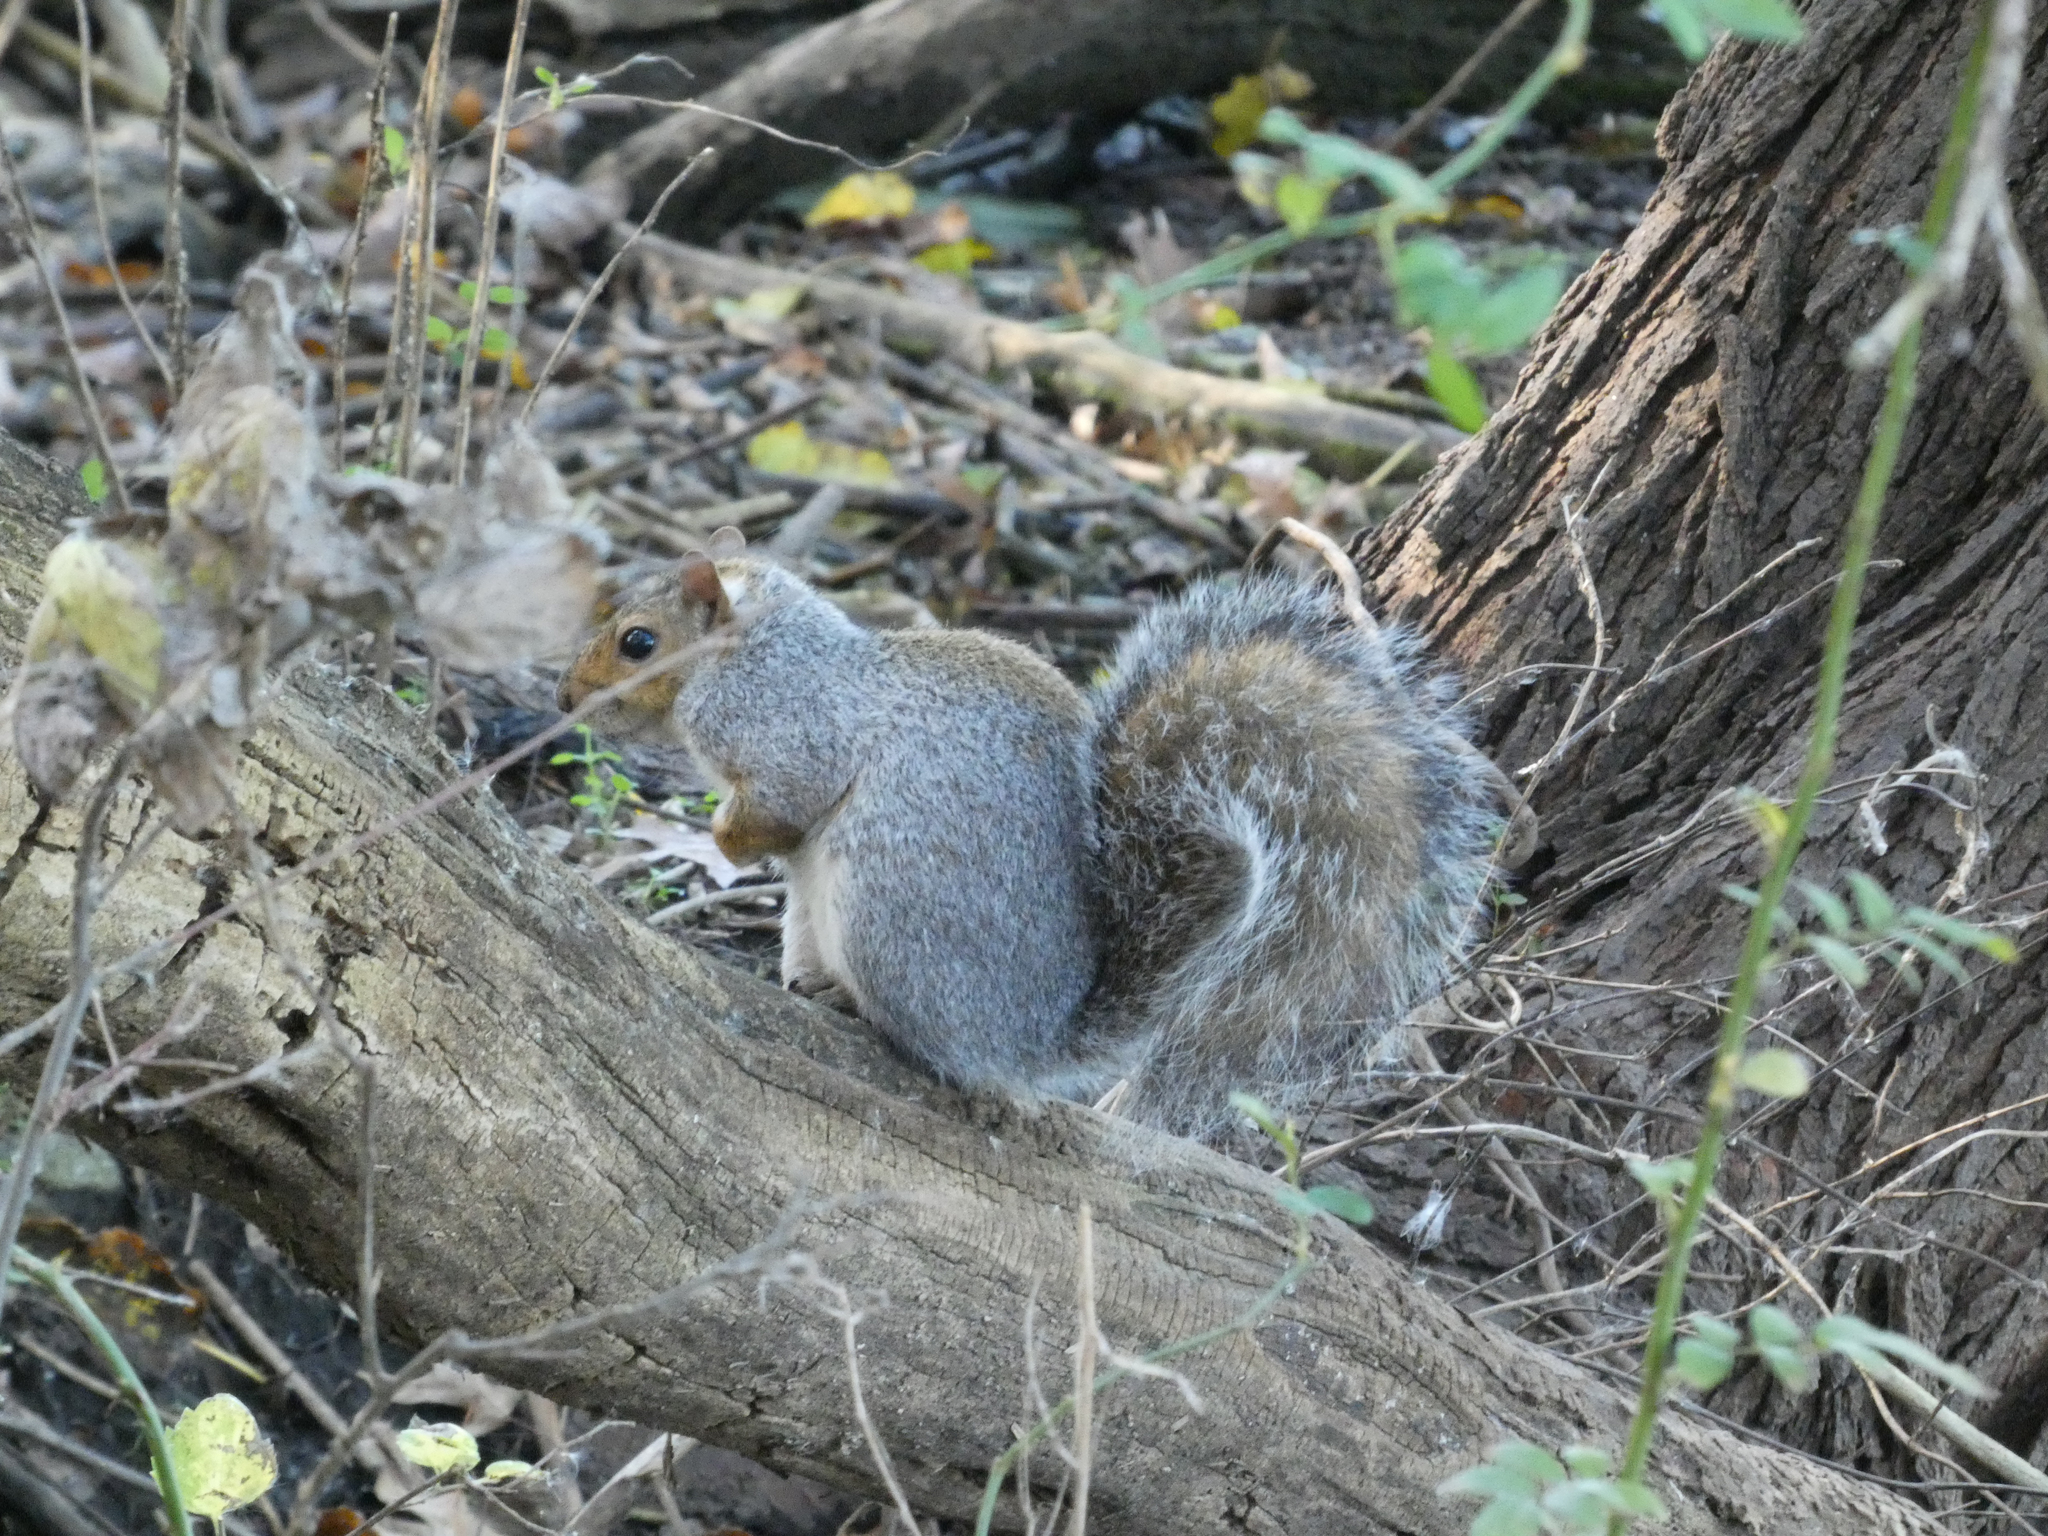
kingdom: Animalia
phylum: Chordata
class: Mammalia
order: Rodentia
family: Sciuridae
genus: Sciurus
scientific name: Sciurus carolinensis
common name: Eastern gray squirrel
